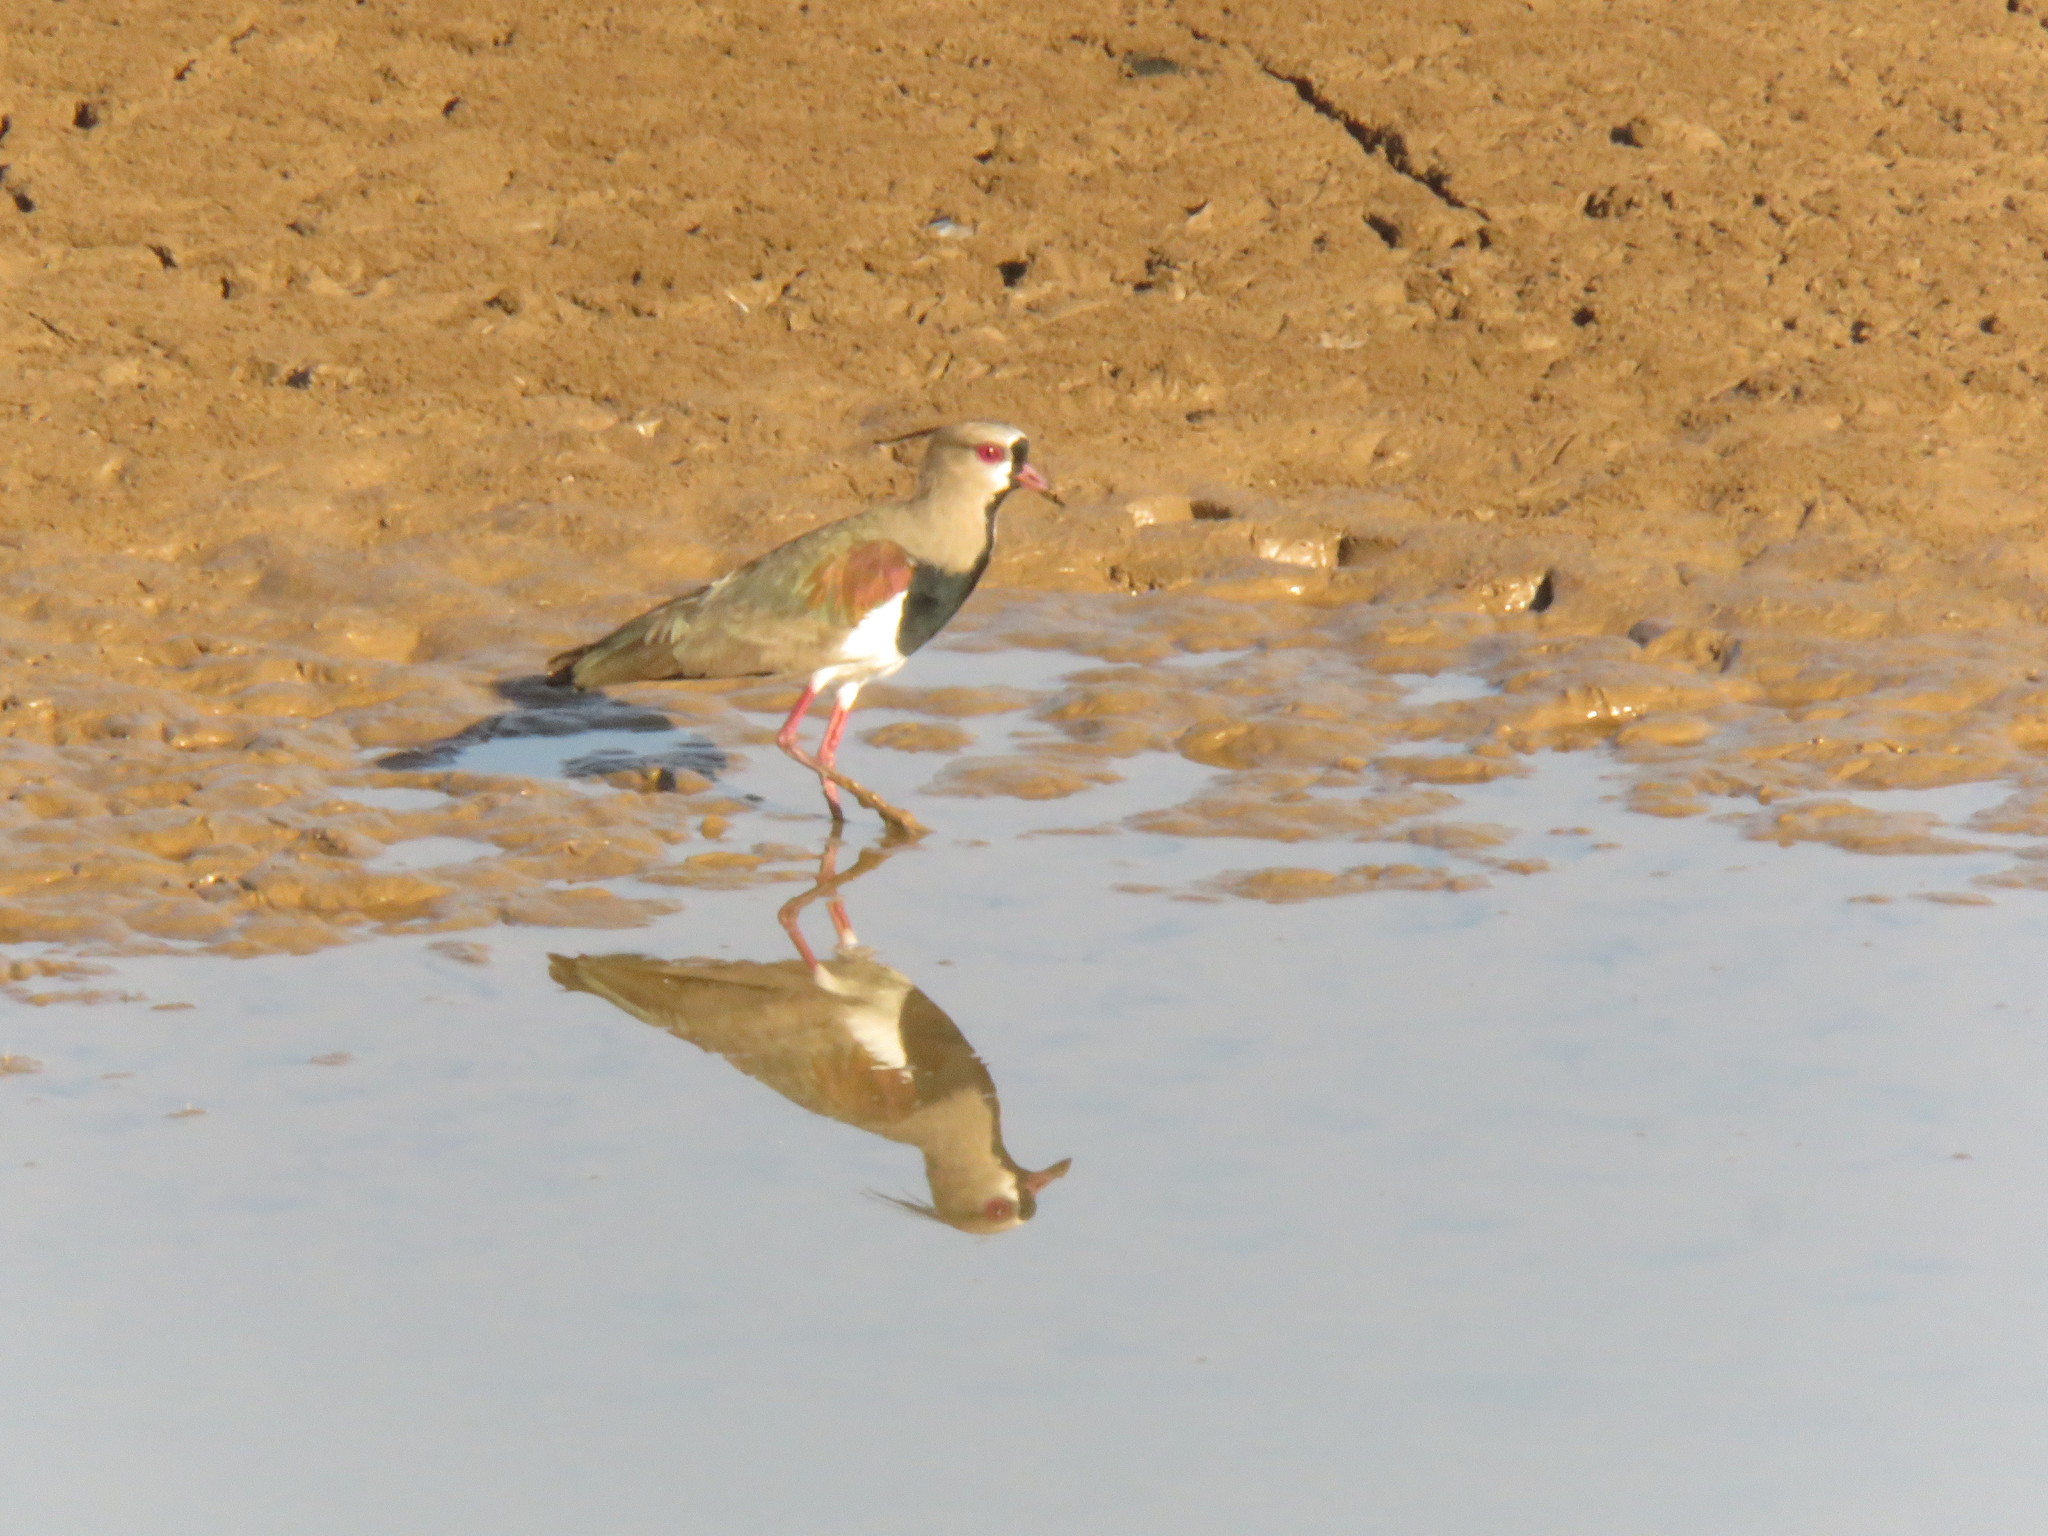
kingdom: Animalia
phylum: Chordata
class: Aves
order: Charadriiformes
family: Charadriidae
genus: Vanellus
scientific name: Vanellus chilensis
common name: Southern lapwing
